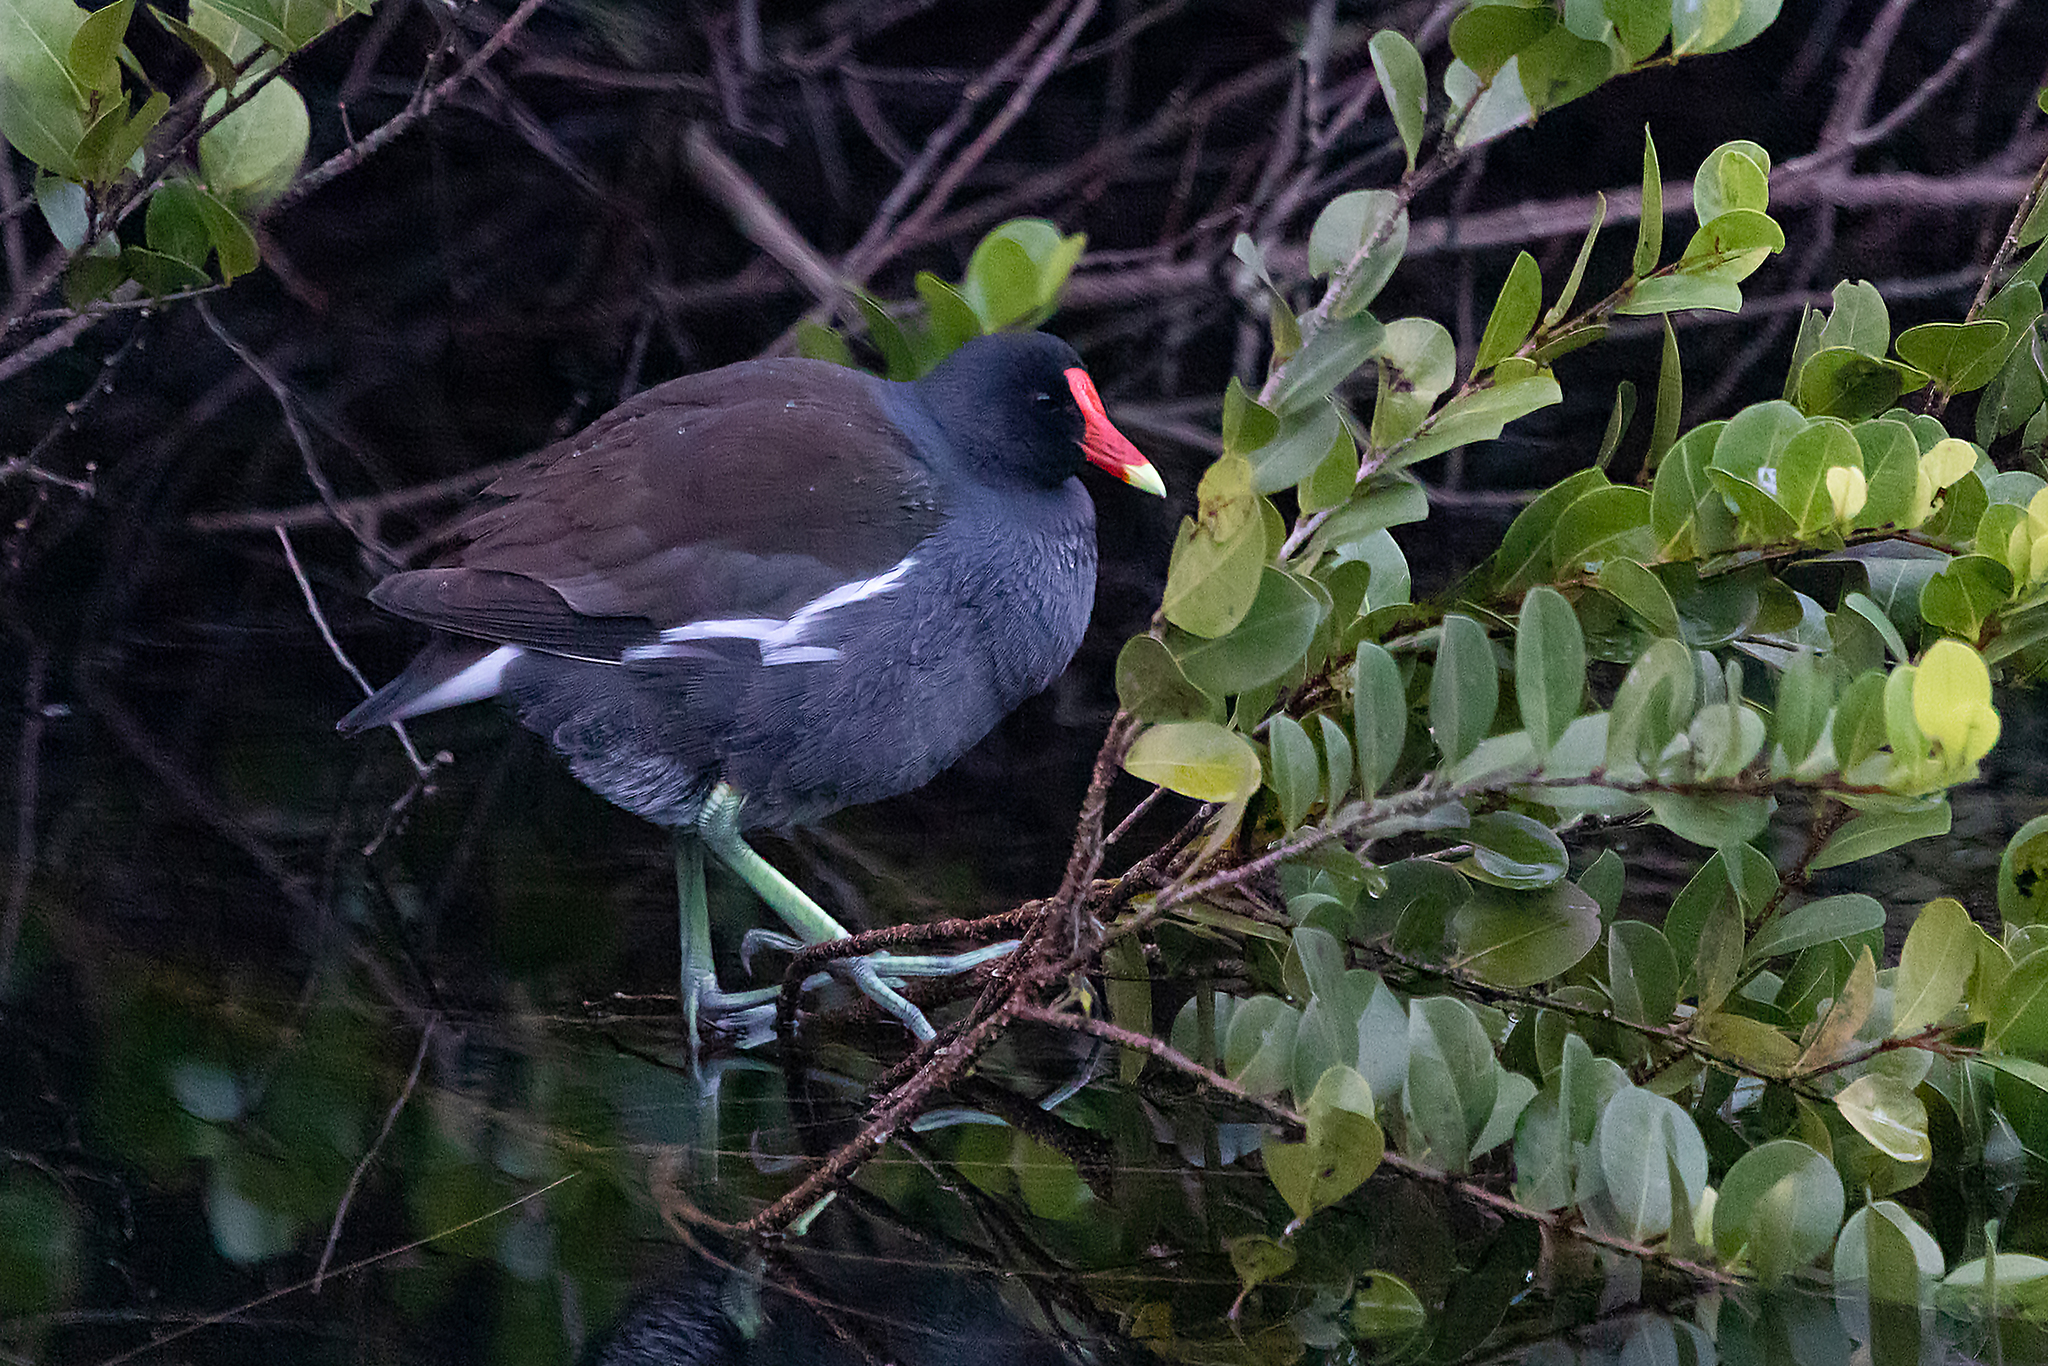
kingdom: Animalia
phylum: Chordata
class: Aves
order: Gruiformes
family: Rallidae
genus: Gallinula
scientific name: Gallinula chloropus
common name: Common moorhen
